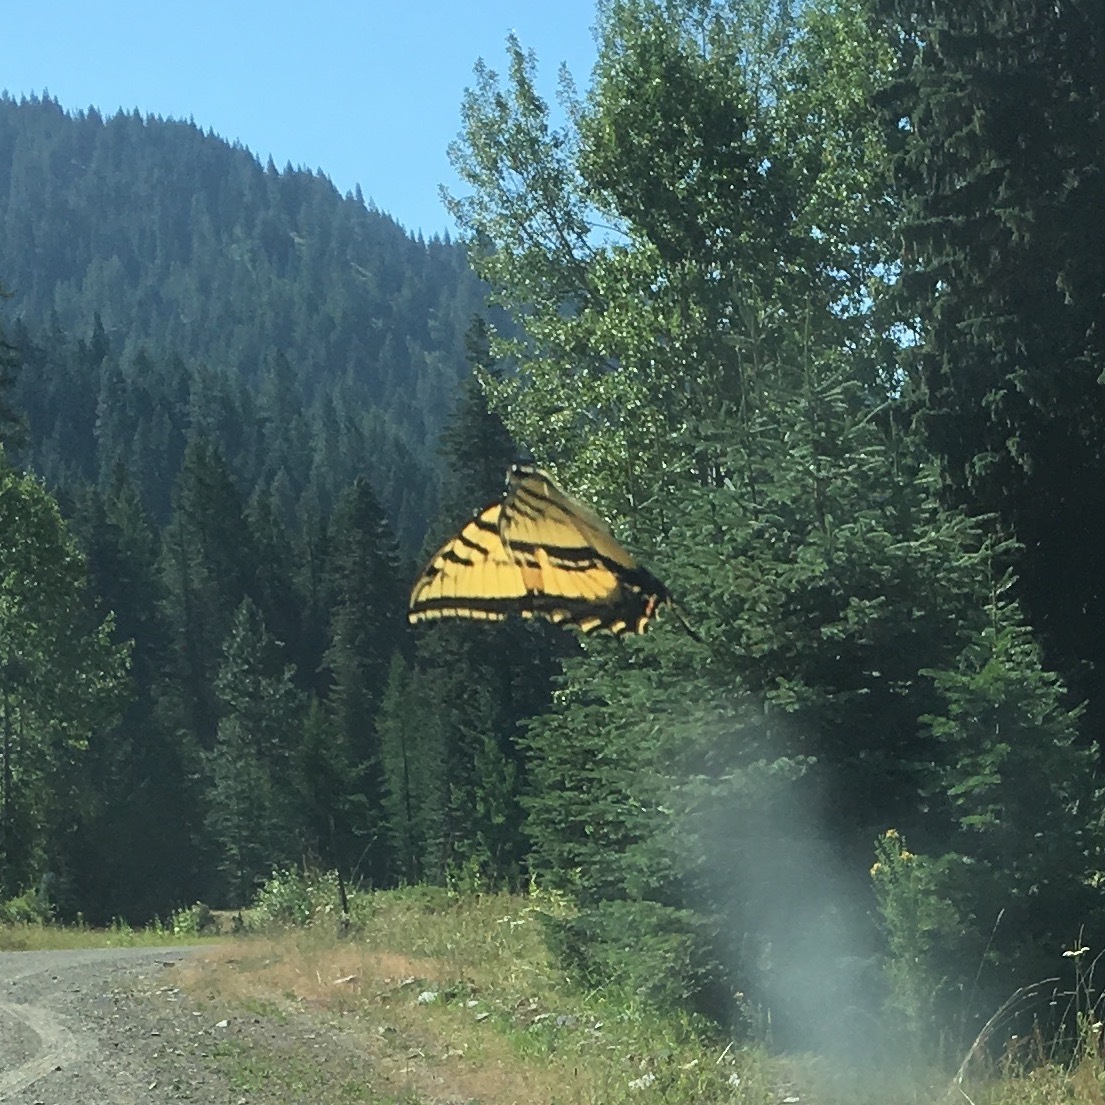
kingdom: Animalia
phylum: Arthropoda
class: Insecta
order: Lepidoptera
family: Papilionidae
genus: Papilio
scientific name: Papilio multicaudata
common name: Two-tailed tiger swallowtail
